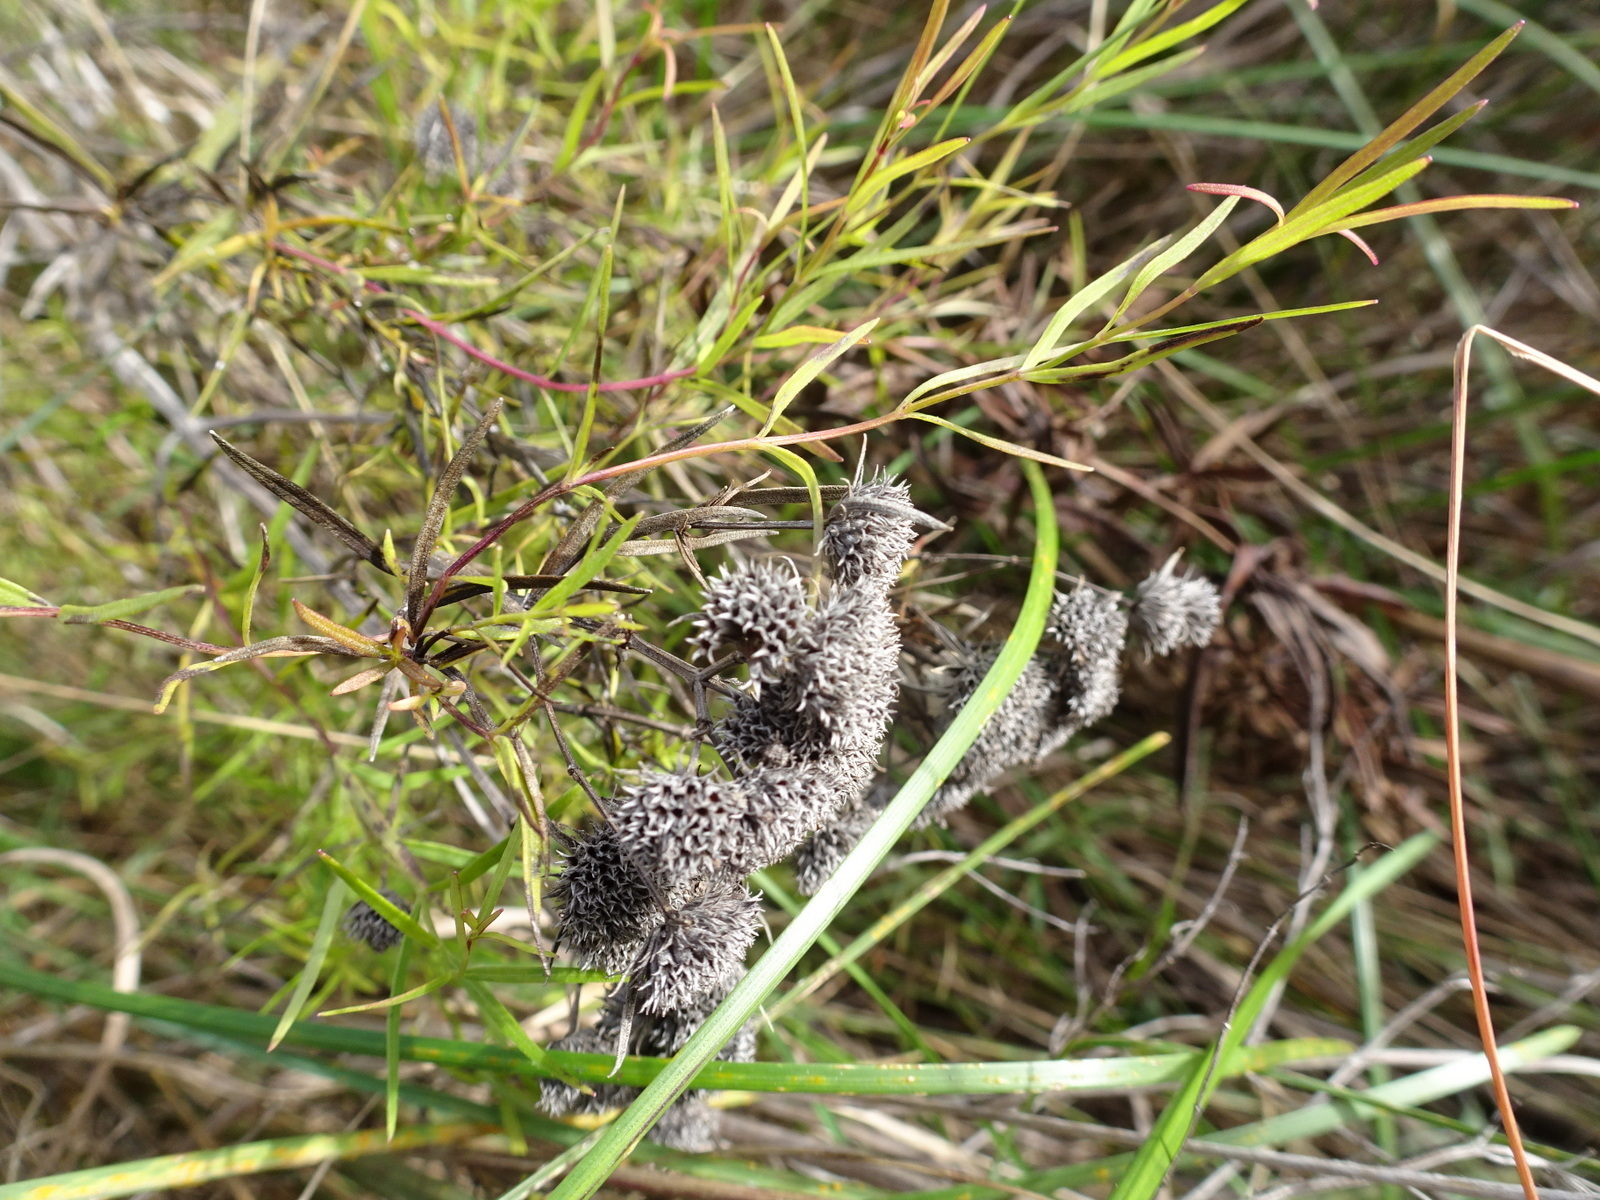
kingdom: Plantae
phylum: Tracheophyta
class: Magnoliopsida
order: Lamiales
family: Lamiaceae
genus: Pycnanthemum
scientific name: Pycnanthemum tenuifolium
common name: Narrow-leaf mountain-mint
